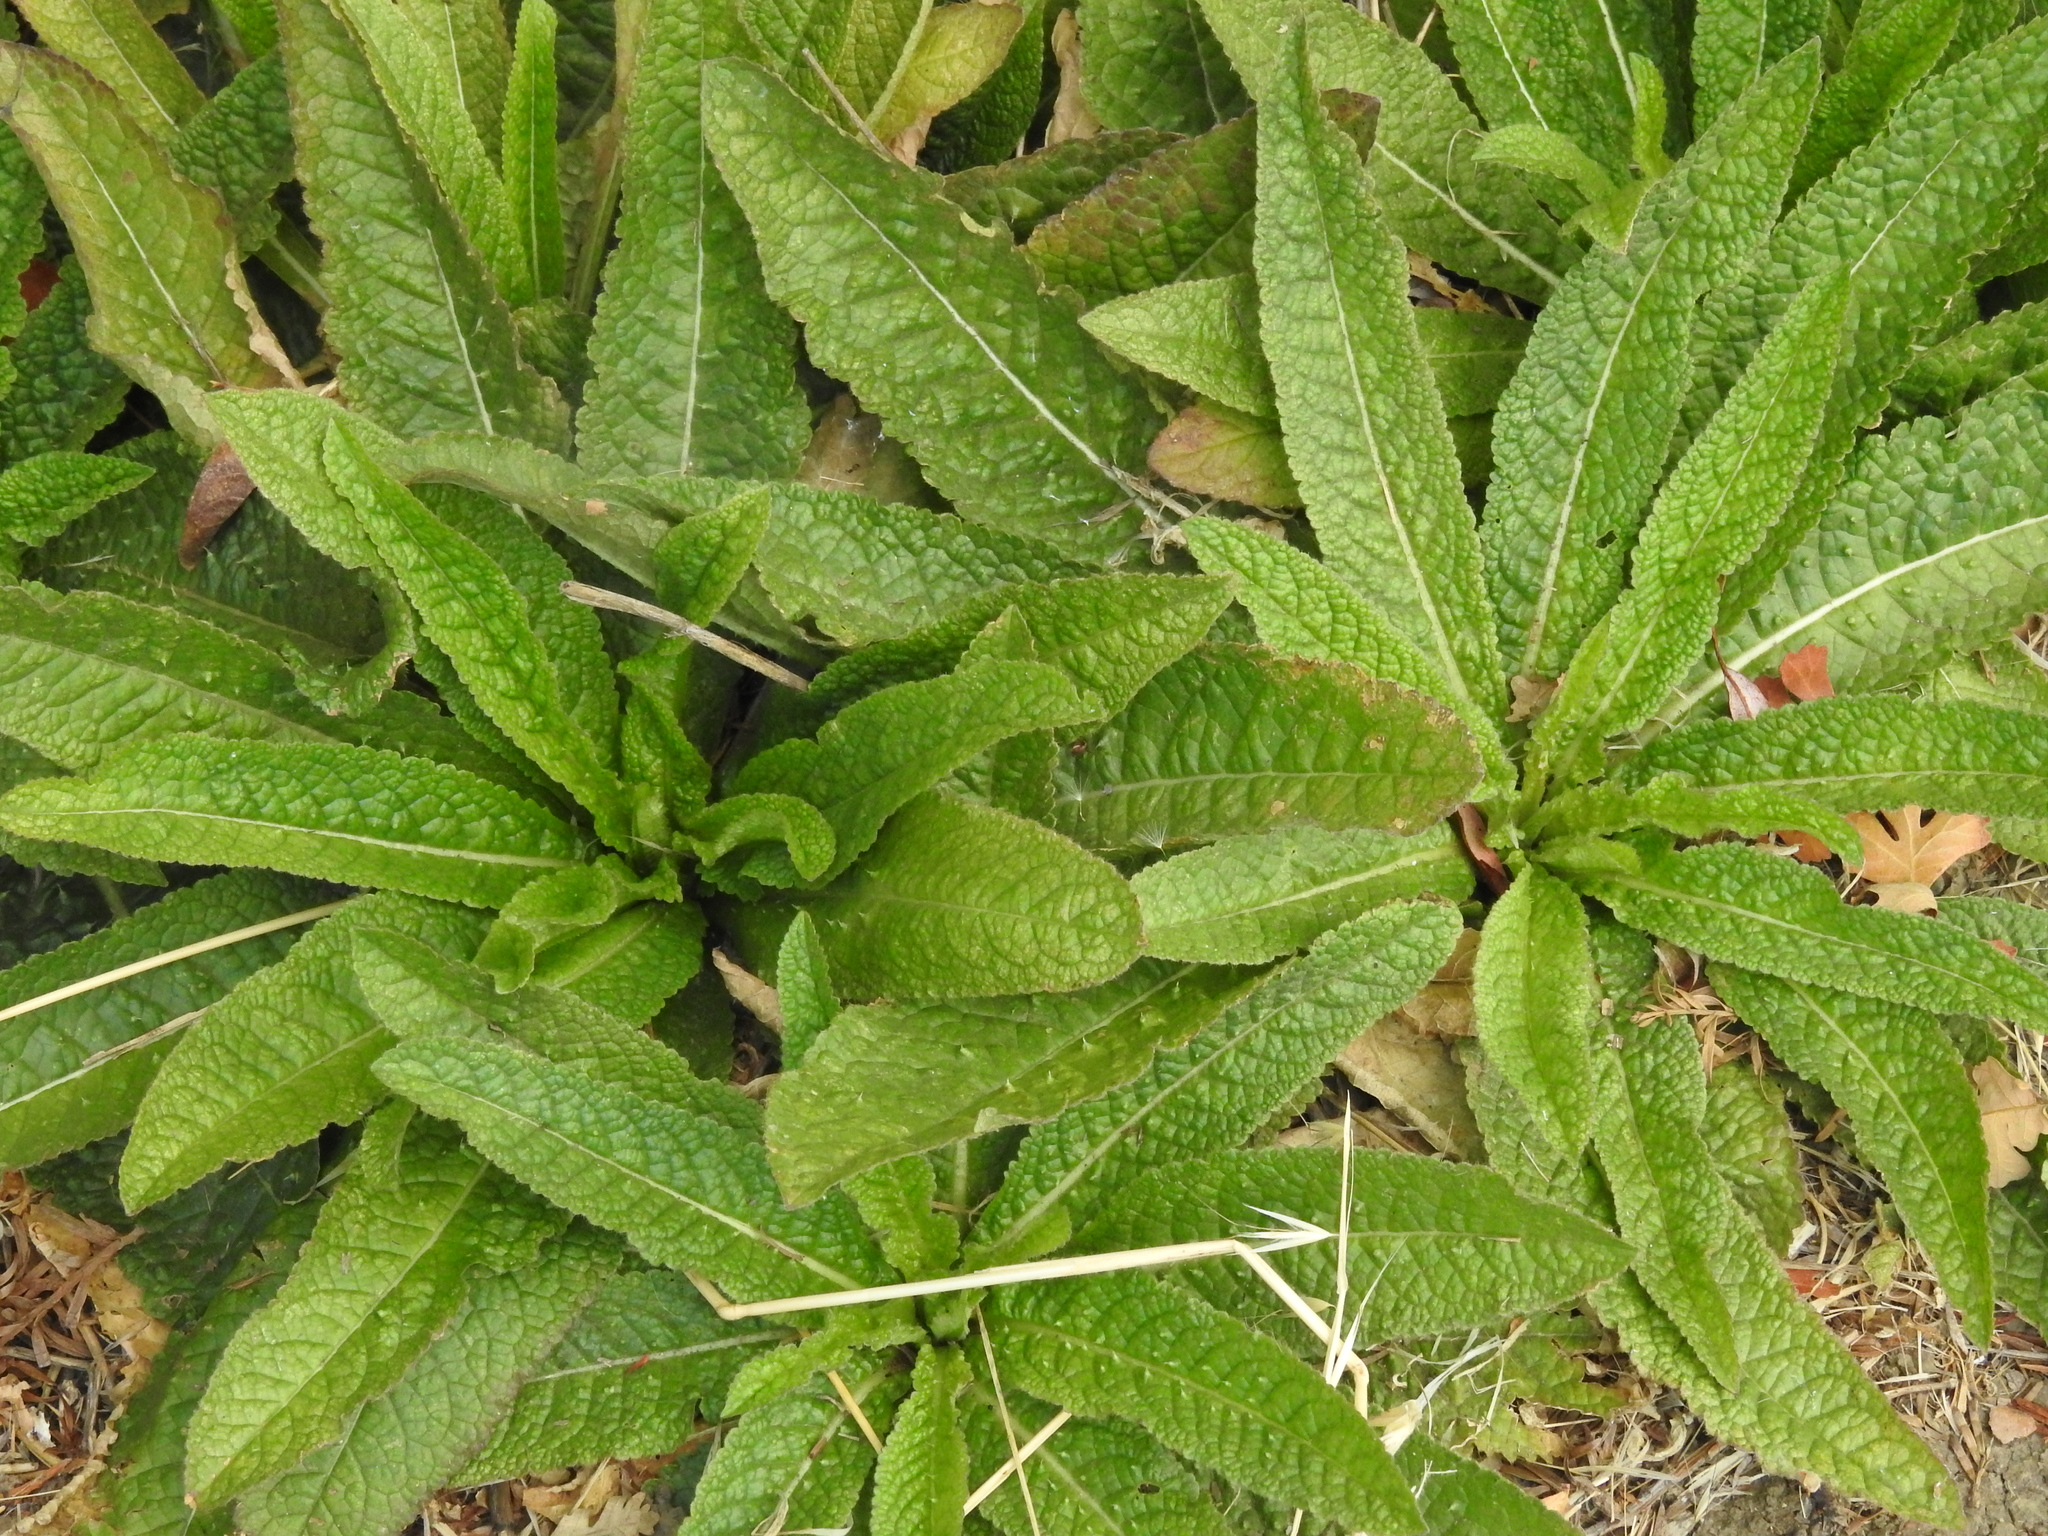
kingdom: Plantae
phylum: Tracheophyta
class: Magnoliopsida
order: Dipsacales
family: Caprifoliaceae
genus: Dipsacus
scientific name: Dipsacus fullonum
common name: Teasel
